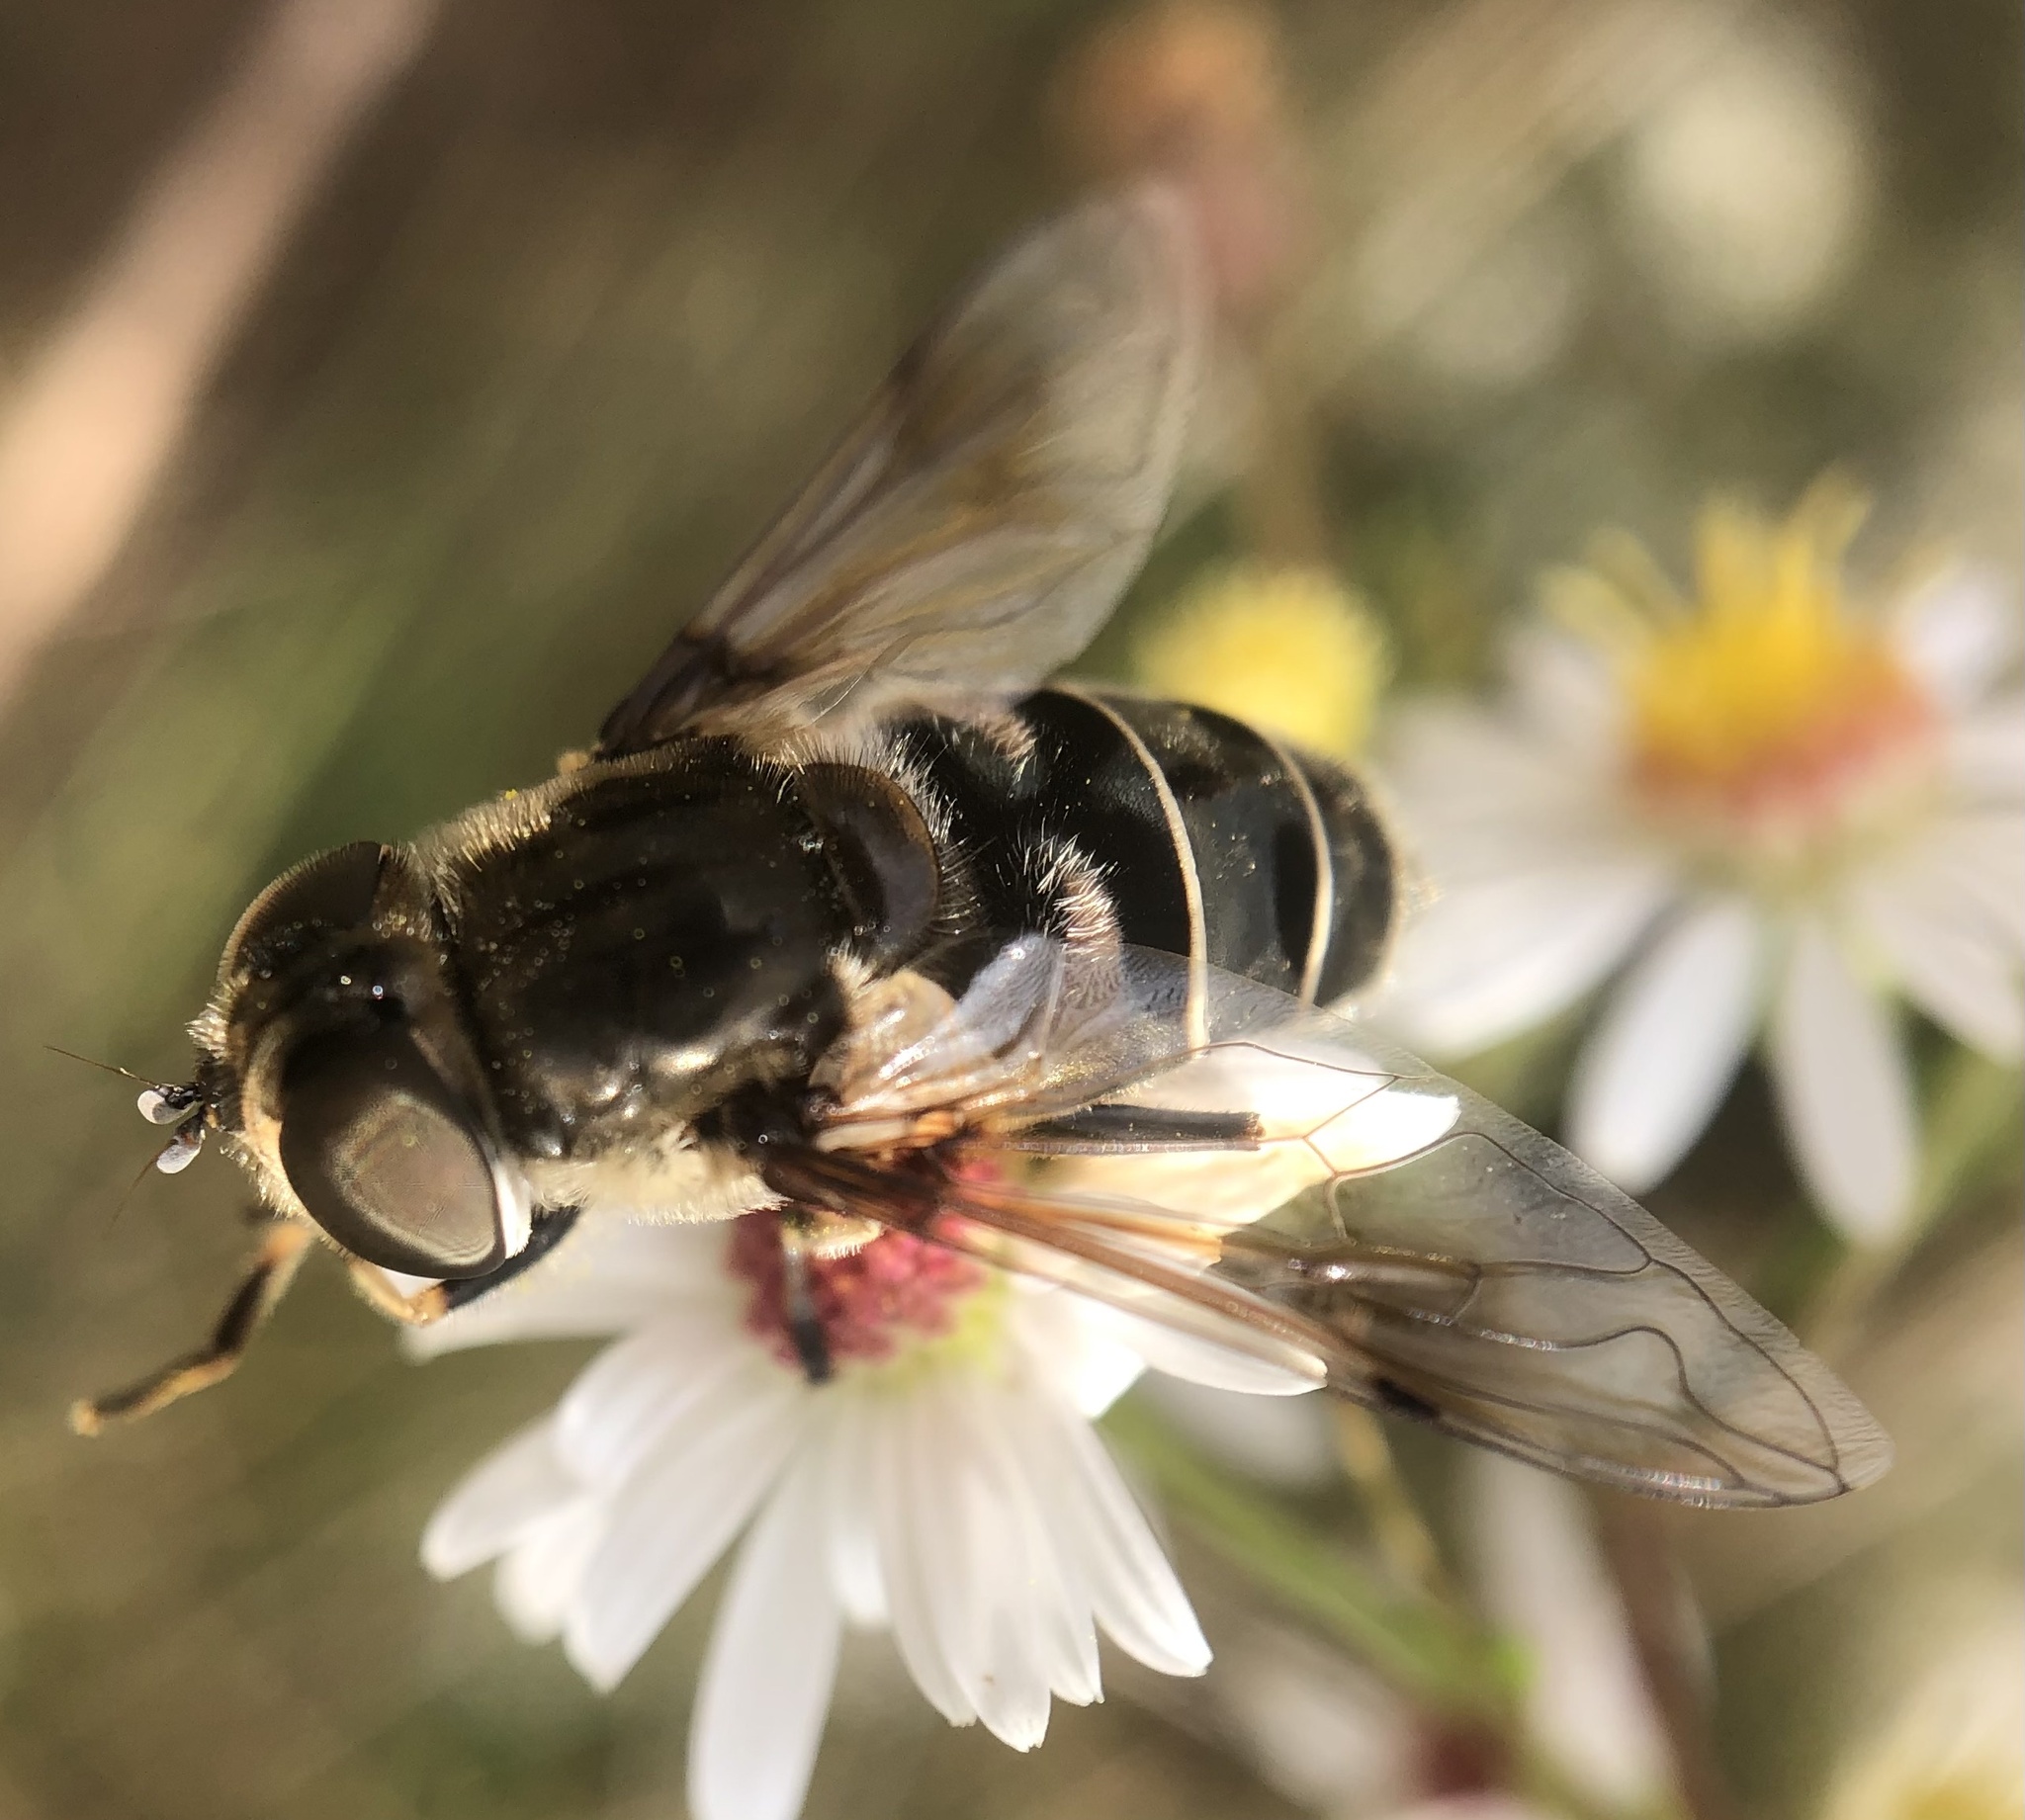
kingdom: Animalia
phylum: Arthropoda
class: Insecta
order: Diptera
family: Syrphidae
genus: Eristalis
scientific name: Eristalis dimidiata
